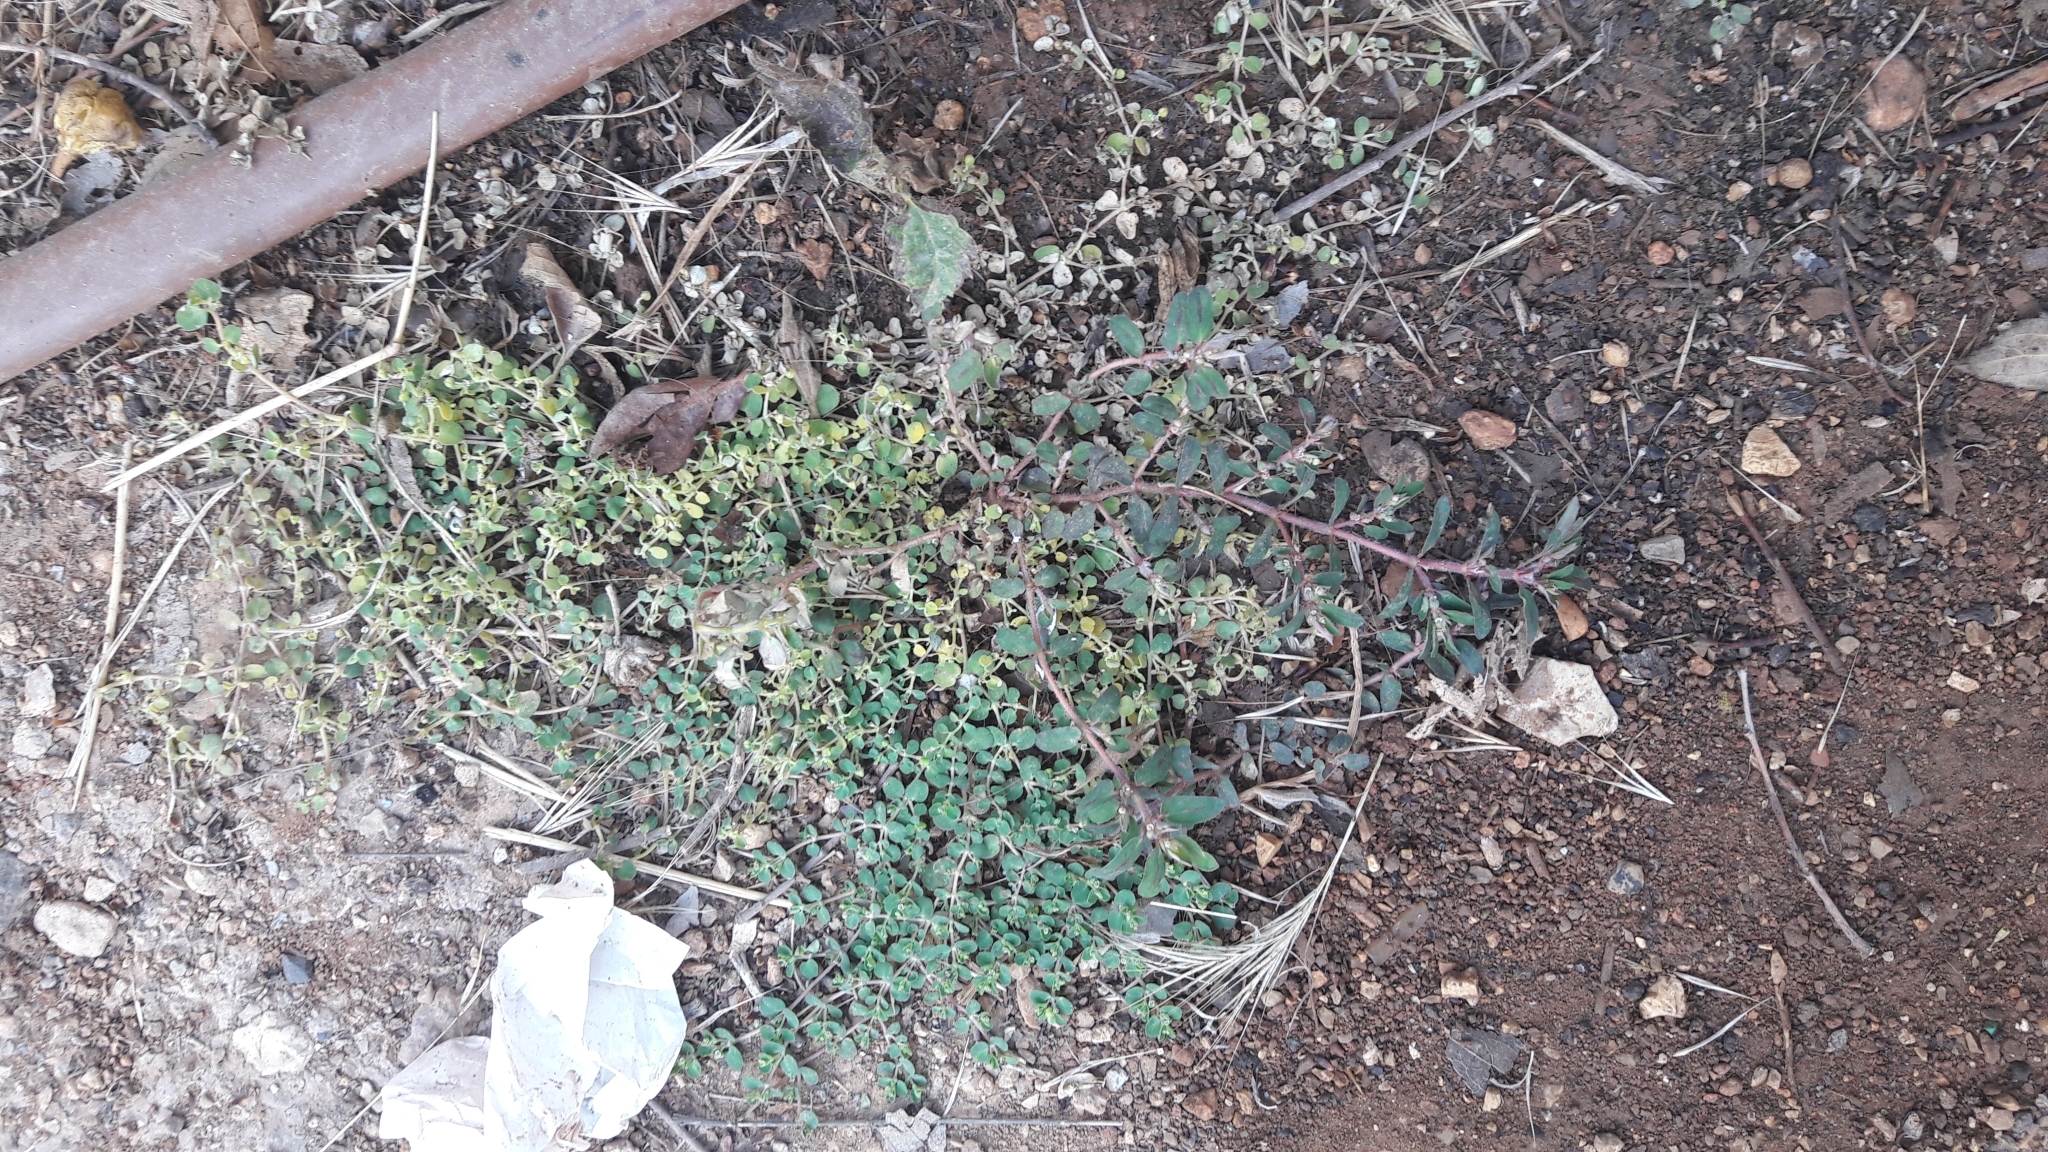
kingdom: Plantae
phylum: Tracheophyta
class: Magnoliopsida
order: Malpighiales
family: Euphorbiaceae
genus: Euphorbia
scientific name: Euphorbia maculata
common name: Spotted spurge
